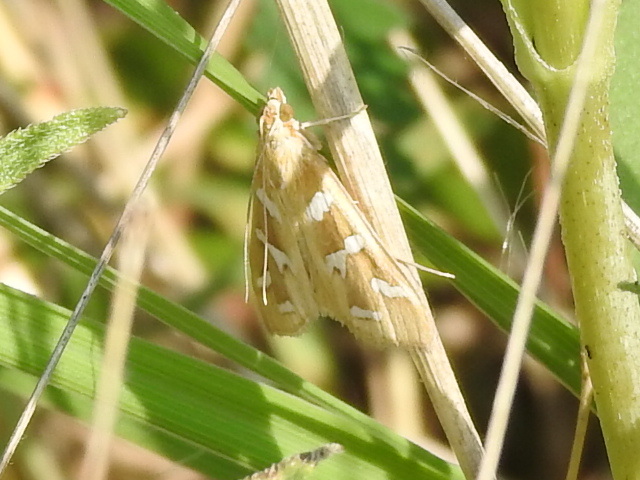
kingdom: Animalia
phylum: Arthropoda
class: Insecta
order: Lepidoptera
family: Crambidae
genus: Diastictis
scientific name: Diastictis fracturalis
